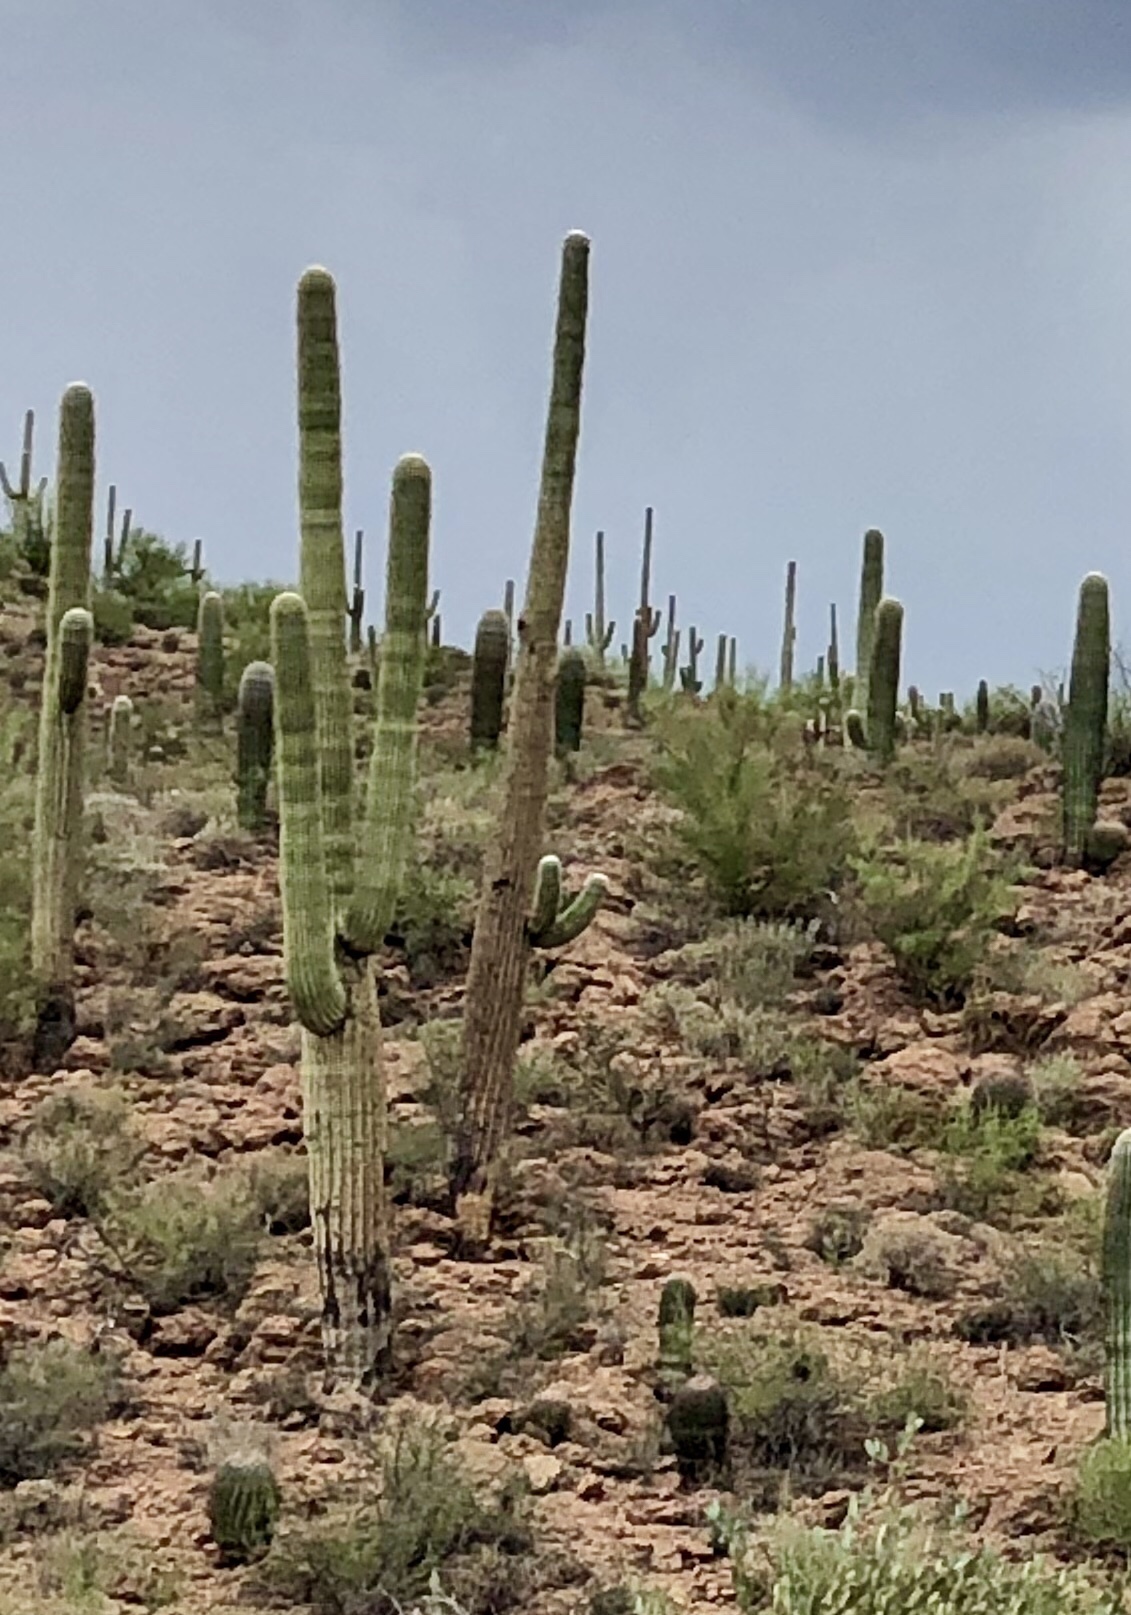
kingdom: Plantae
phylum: Tracheophyta
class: Magnoliopsida
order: Caryophyllales
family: Cactaceae
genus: Carnegiea
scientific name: Carnegiea gigantea
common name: Saguaro
